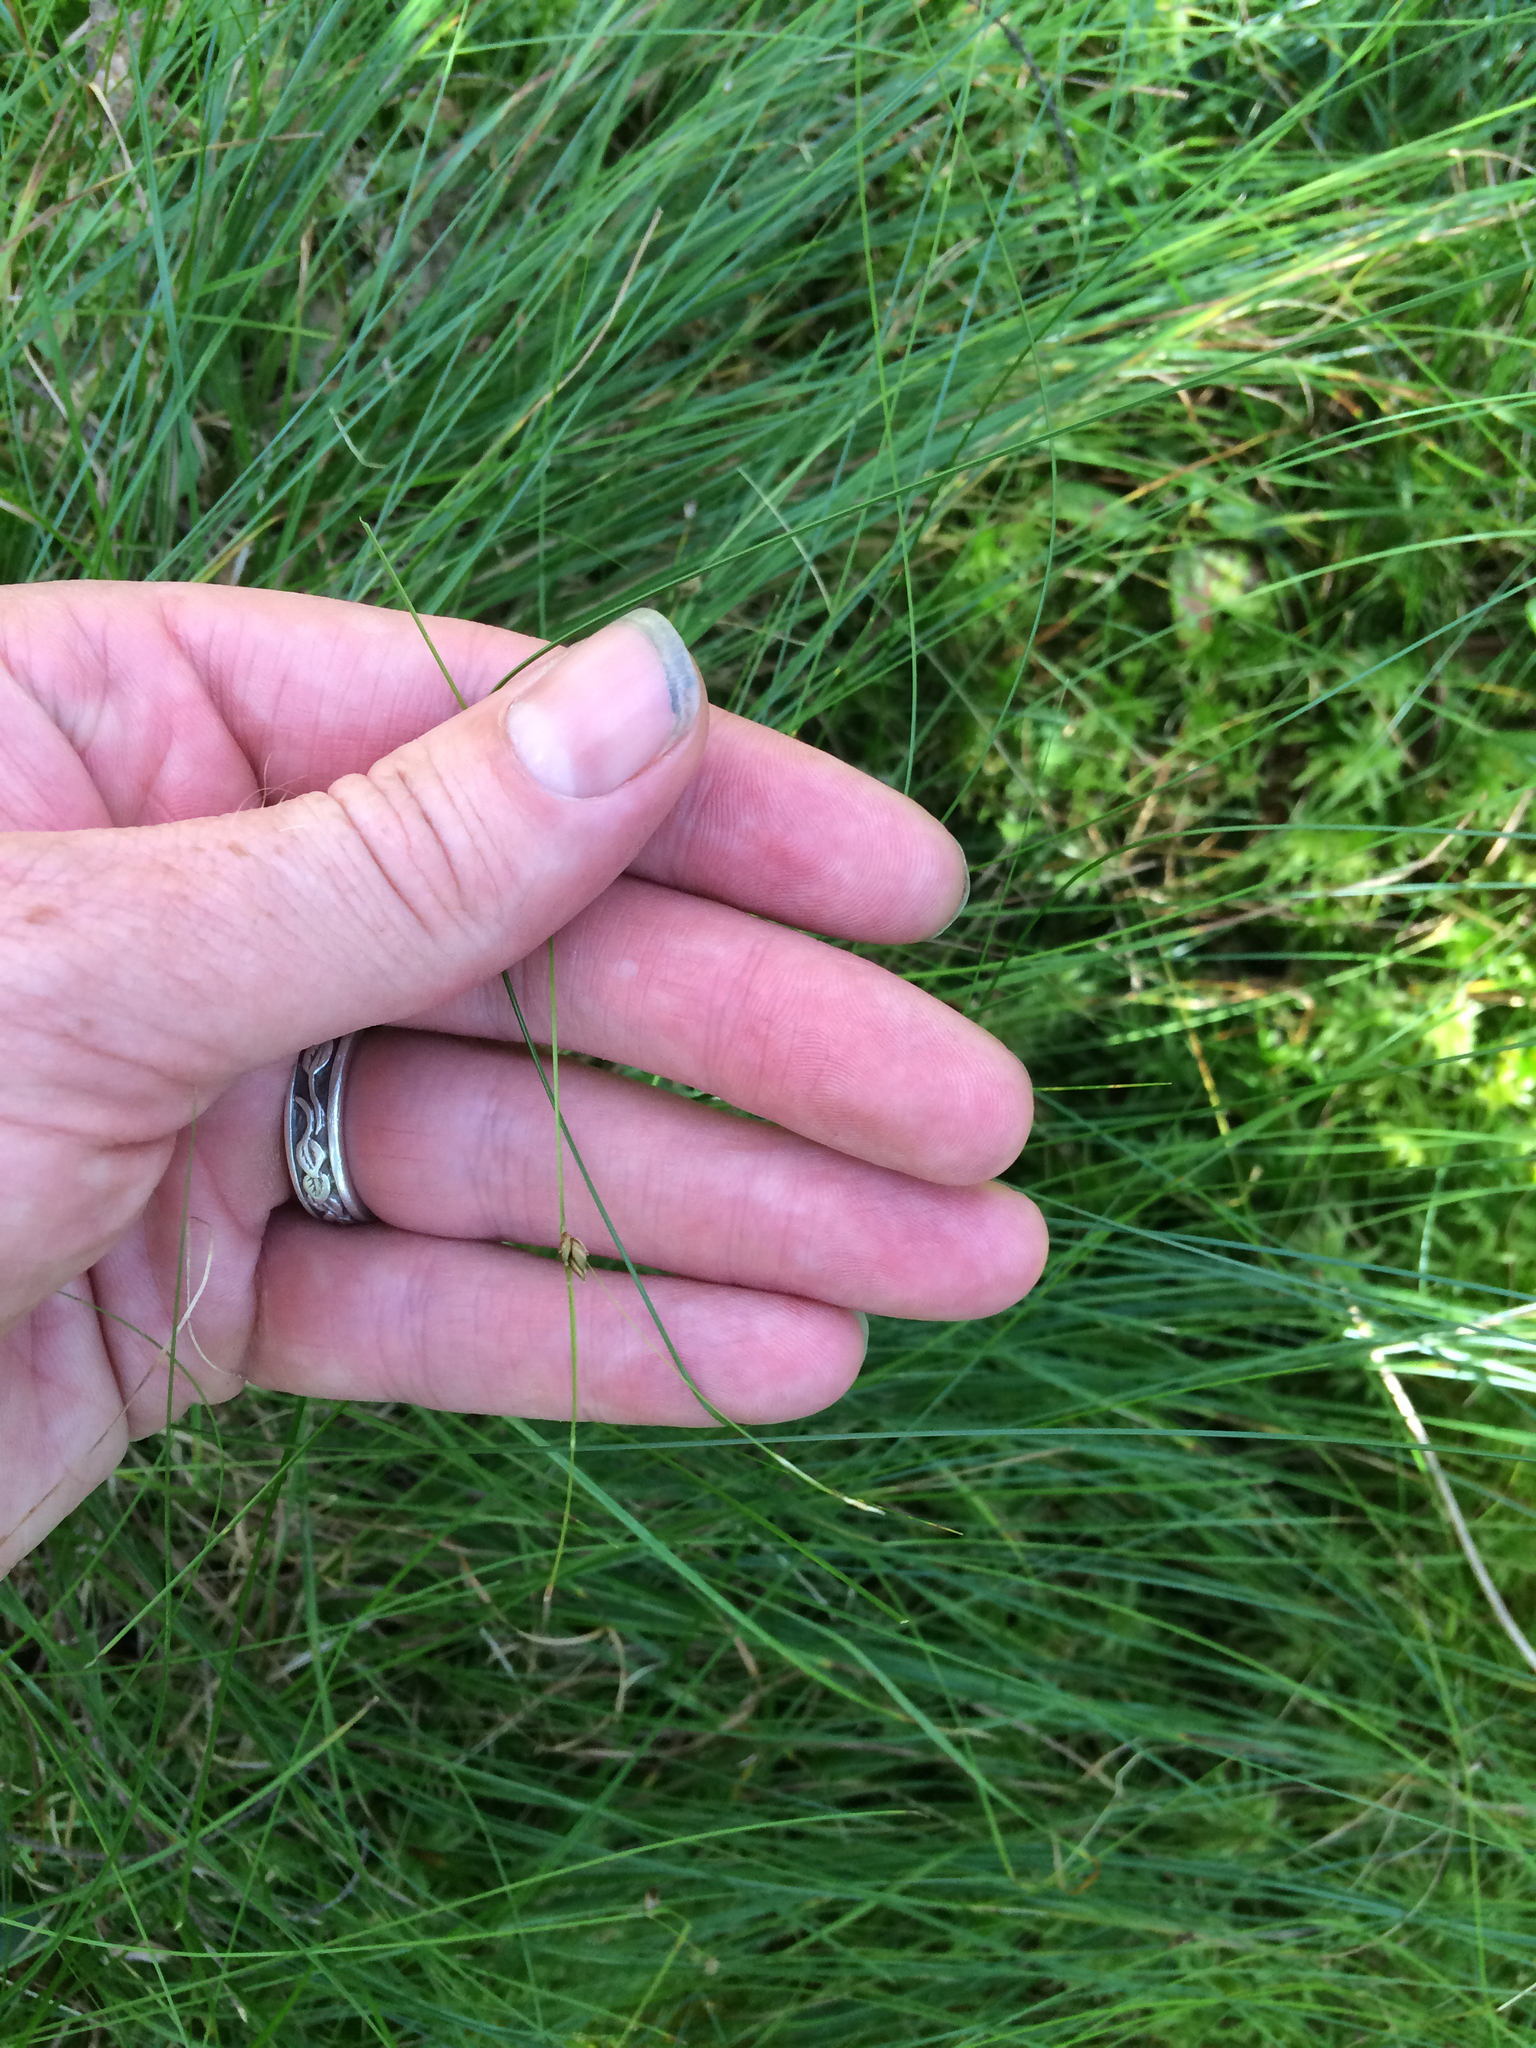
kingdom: Plantae
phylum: Tracheophyta
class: Liliopsida
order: Poales
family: Cyperaceae
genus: Carex
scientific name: Carex trisperma
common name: Three-seeded sedge
